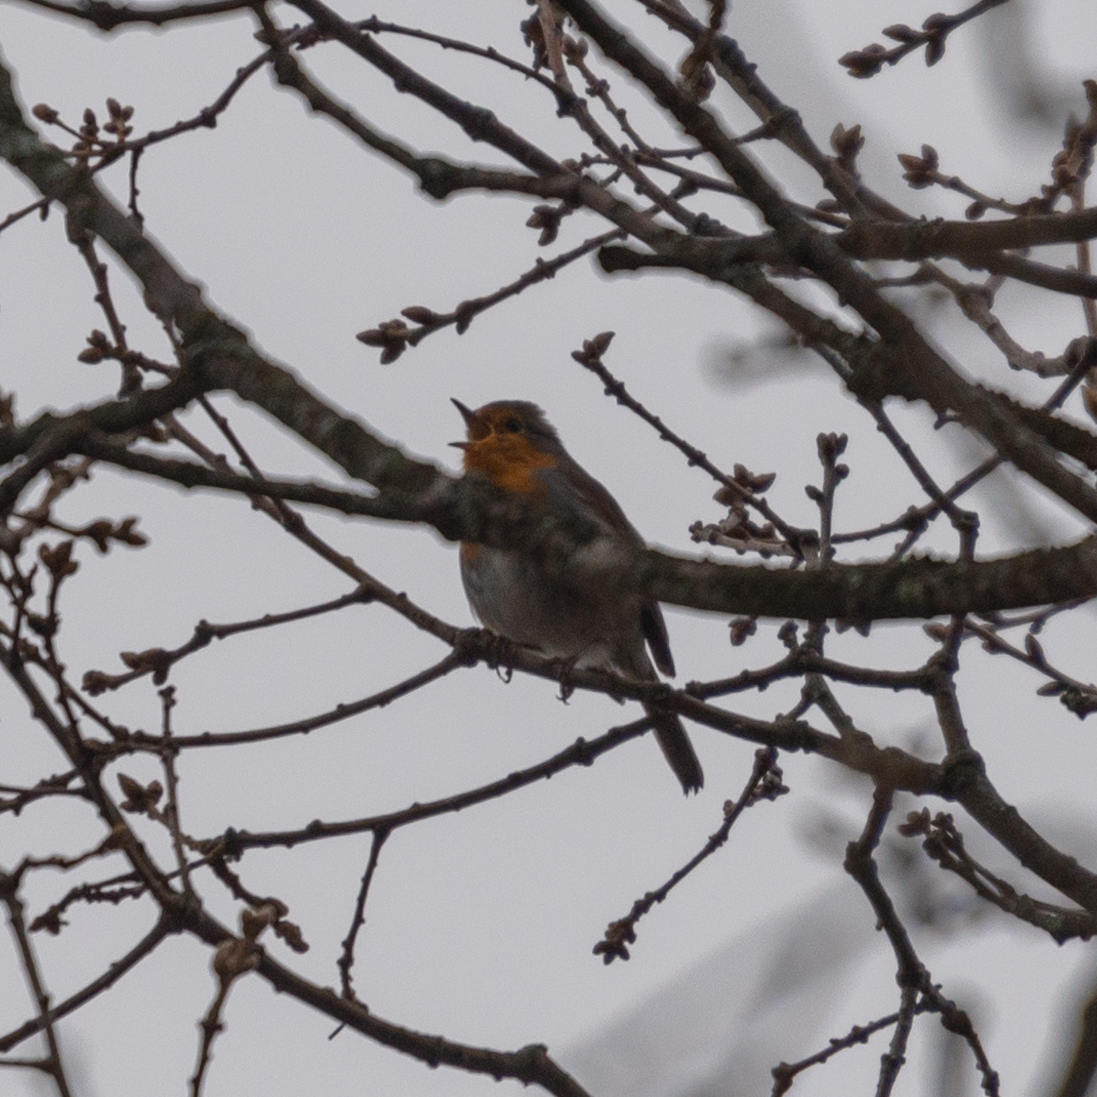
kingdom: Animalia
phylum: Chordata
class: Aves
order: Passeriformes
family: Muscicapidae
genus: Erithacus
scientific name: Erithacus rubecula
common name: European robin
